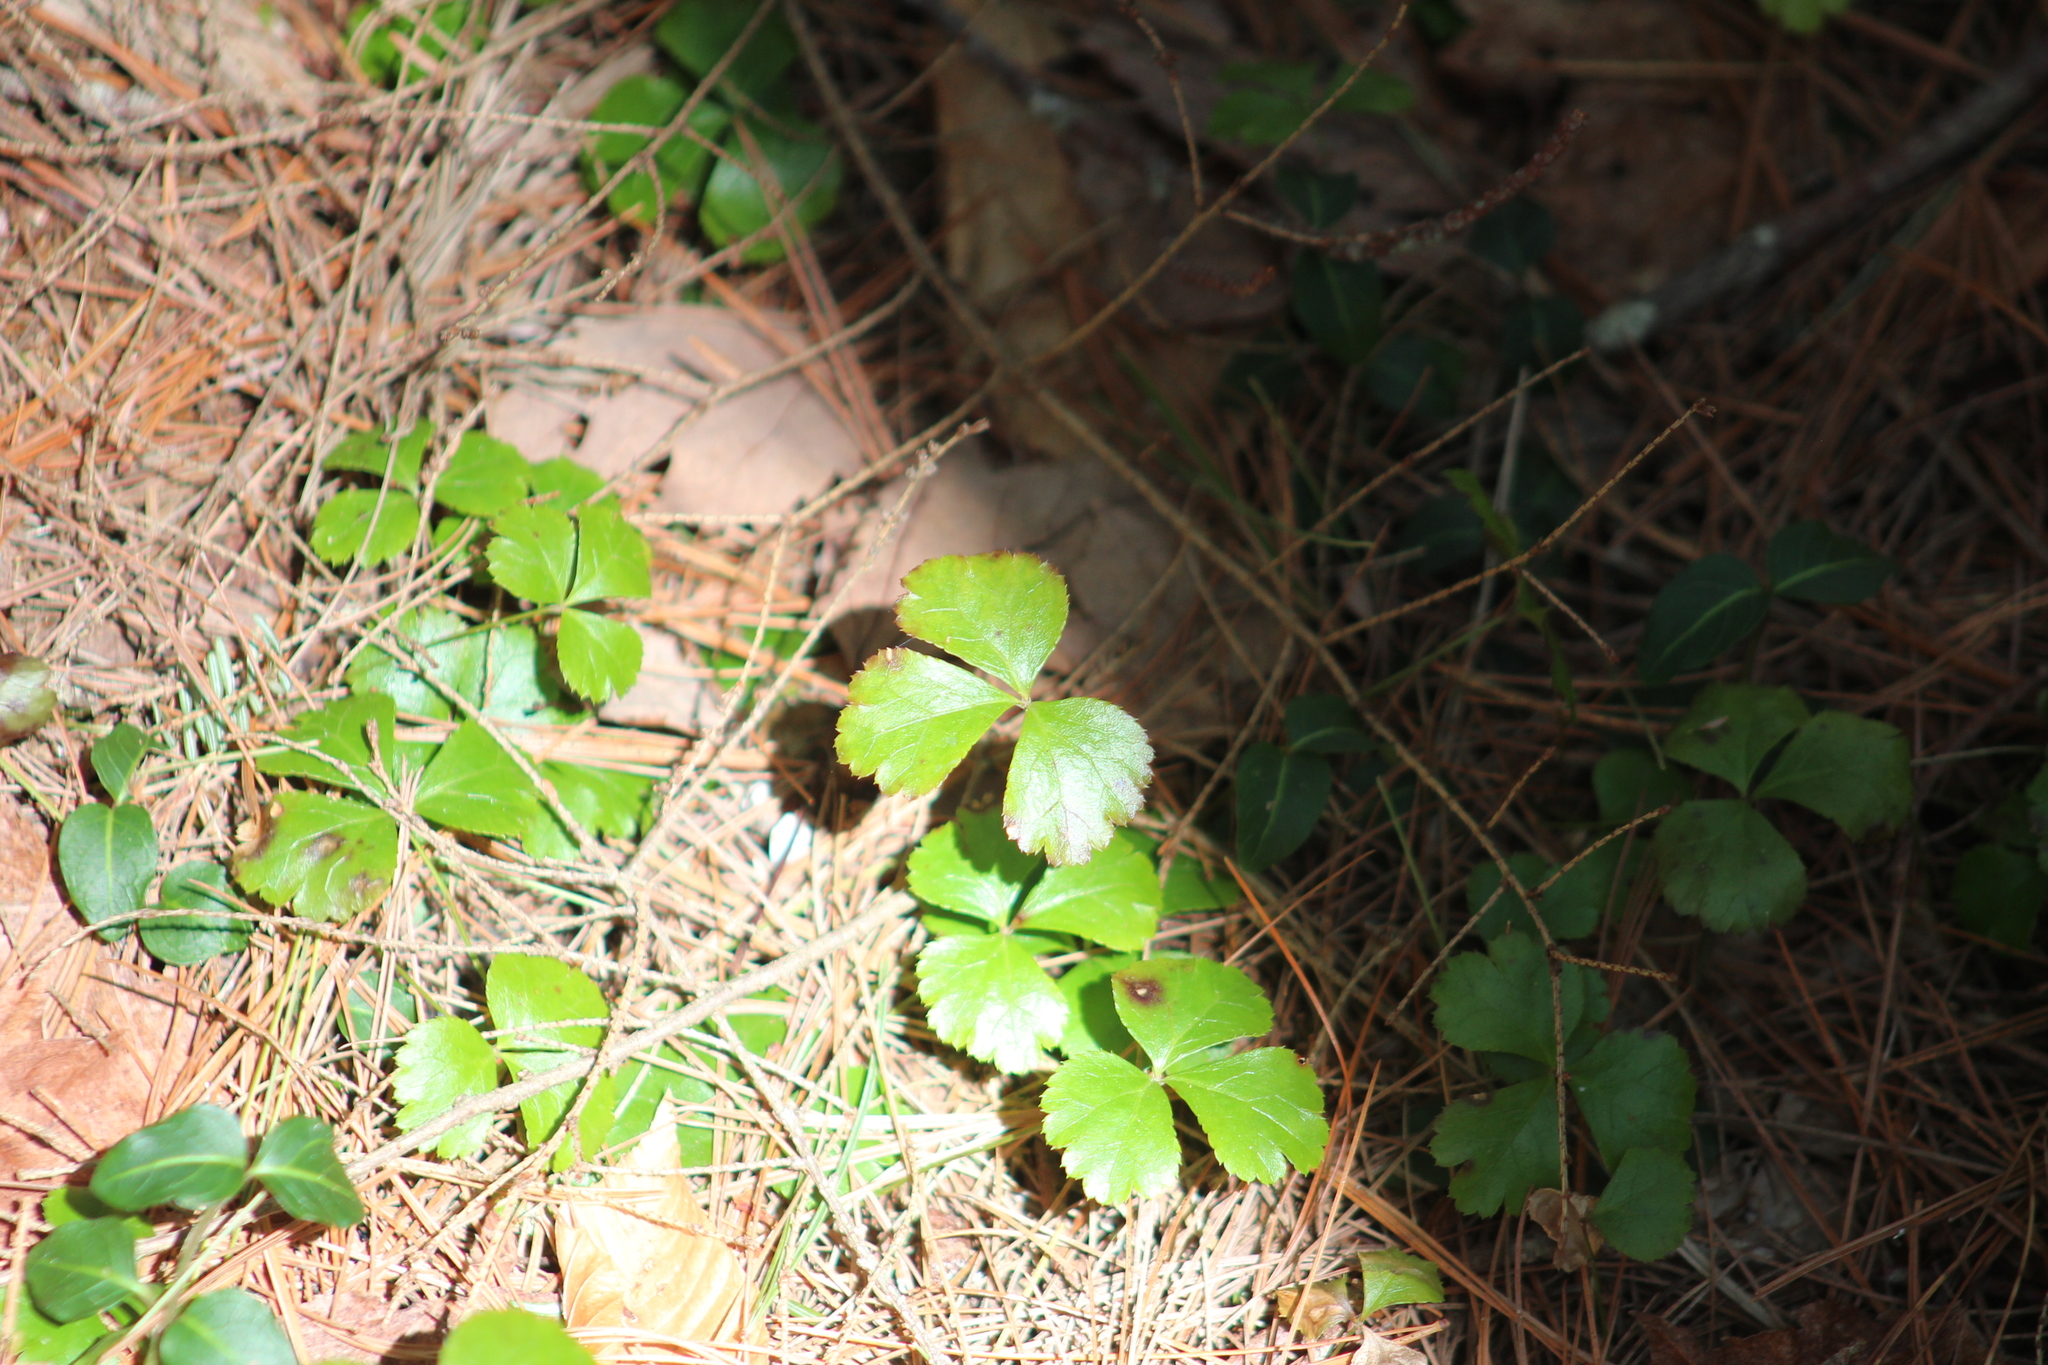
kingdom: Plantae
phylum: Tracheophyta
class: Magnoliopsida
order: Ranunculales
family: Ranunculaceae
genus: Coptis
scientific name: Coptis trifolia
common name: Canker-root
